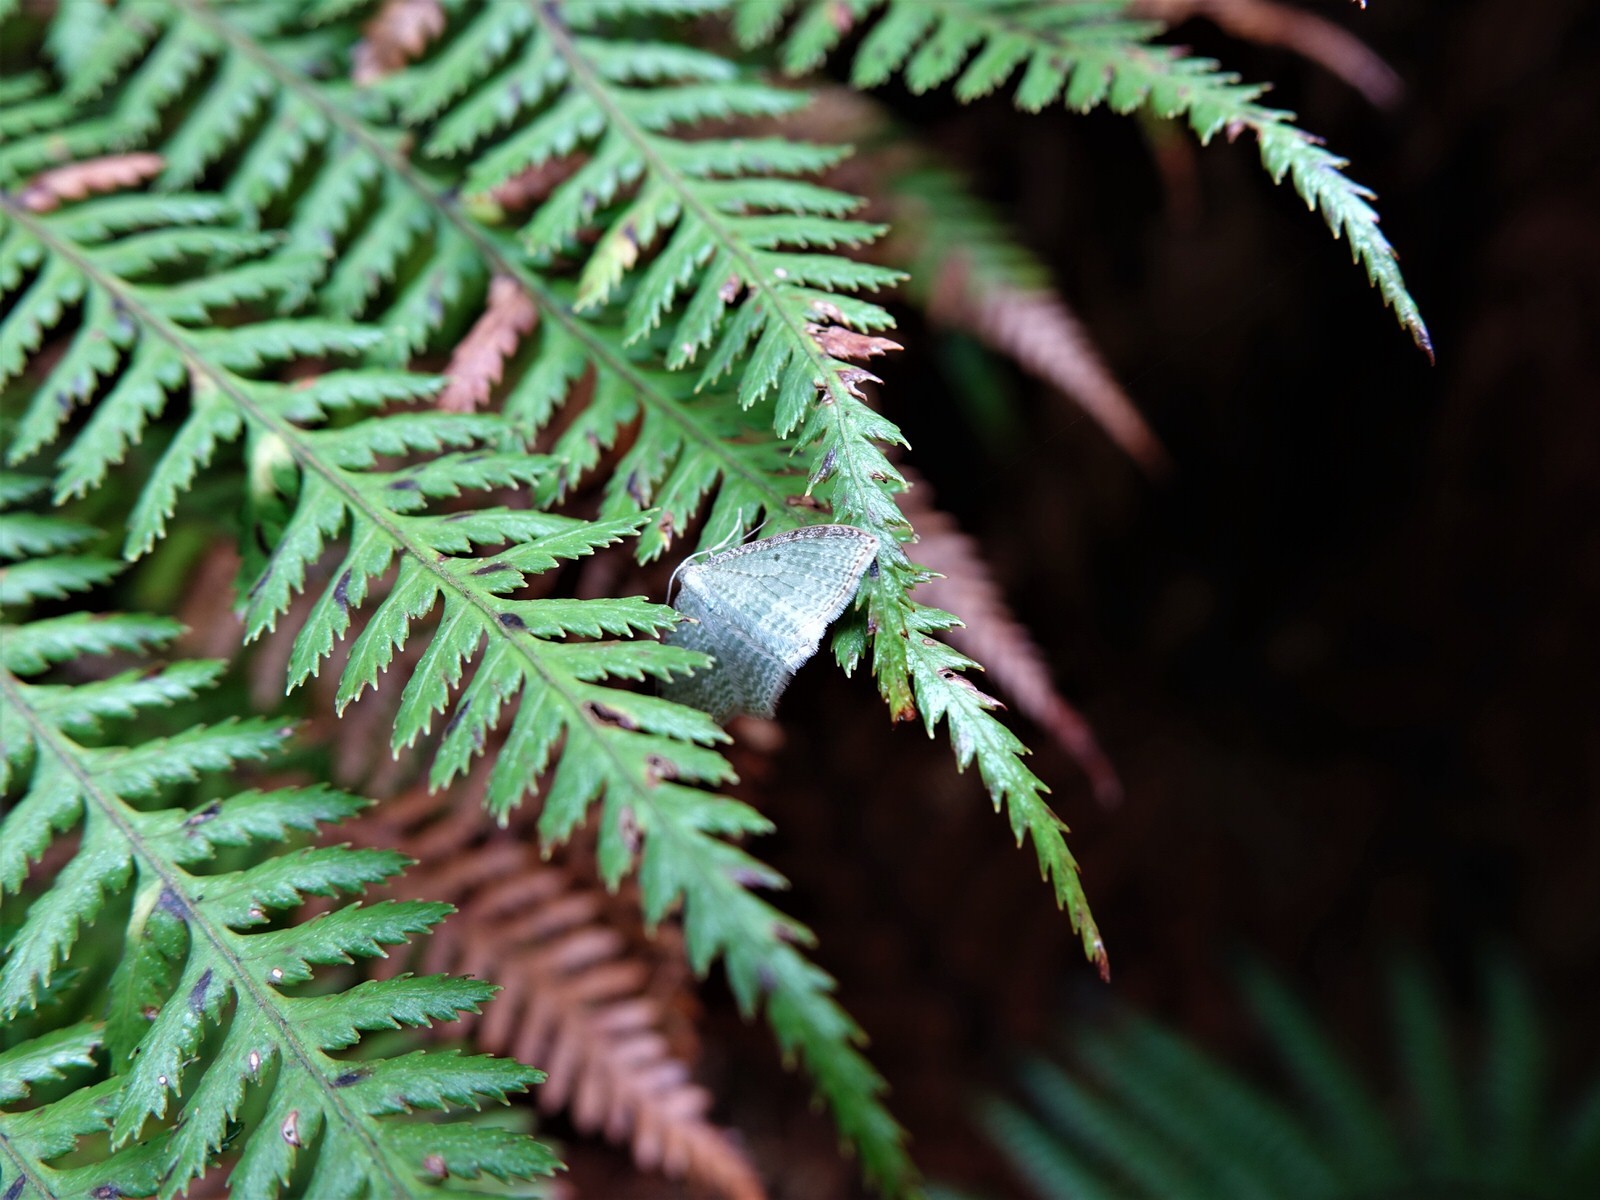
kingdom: Animalia
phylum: Arthropoda
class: Insecta
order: Lepidoptera
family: Geometridae
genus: Poecilasthena
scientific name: Poecilasthena pulchraria
